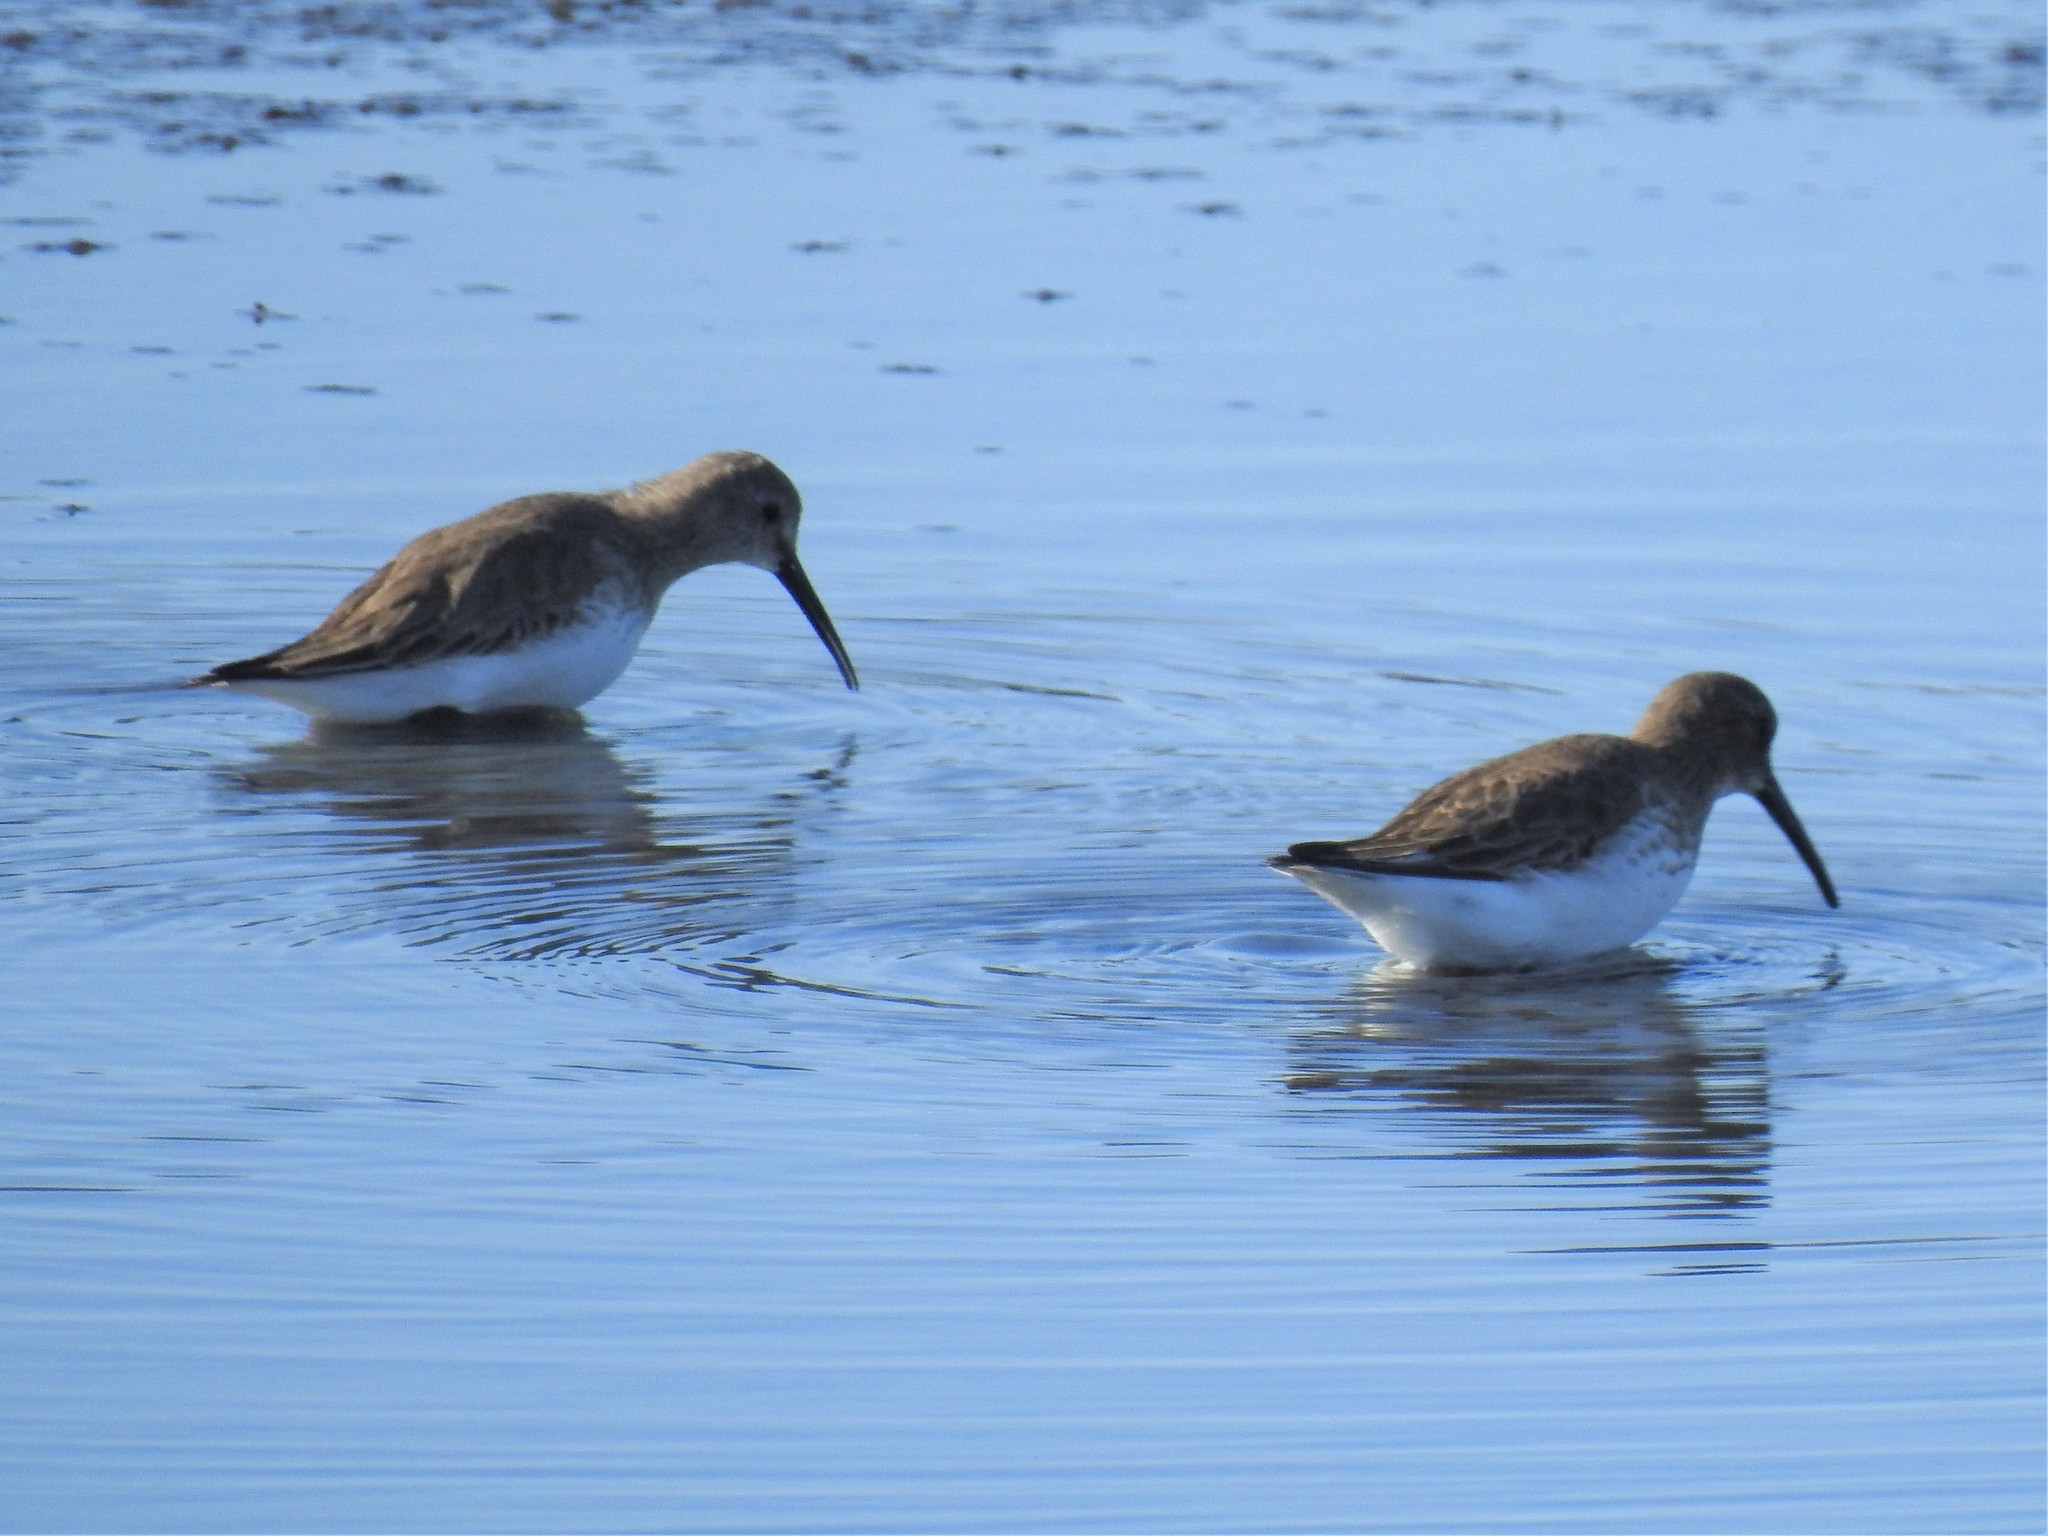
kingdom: Animalia
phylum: Chordata
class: Aves
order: Charadriiformes
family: Scolopacidae
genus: Calidris
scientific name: Calidris alpina
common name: Dunlin
